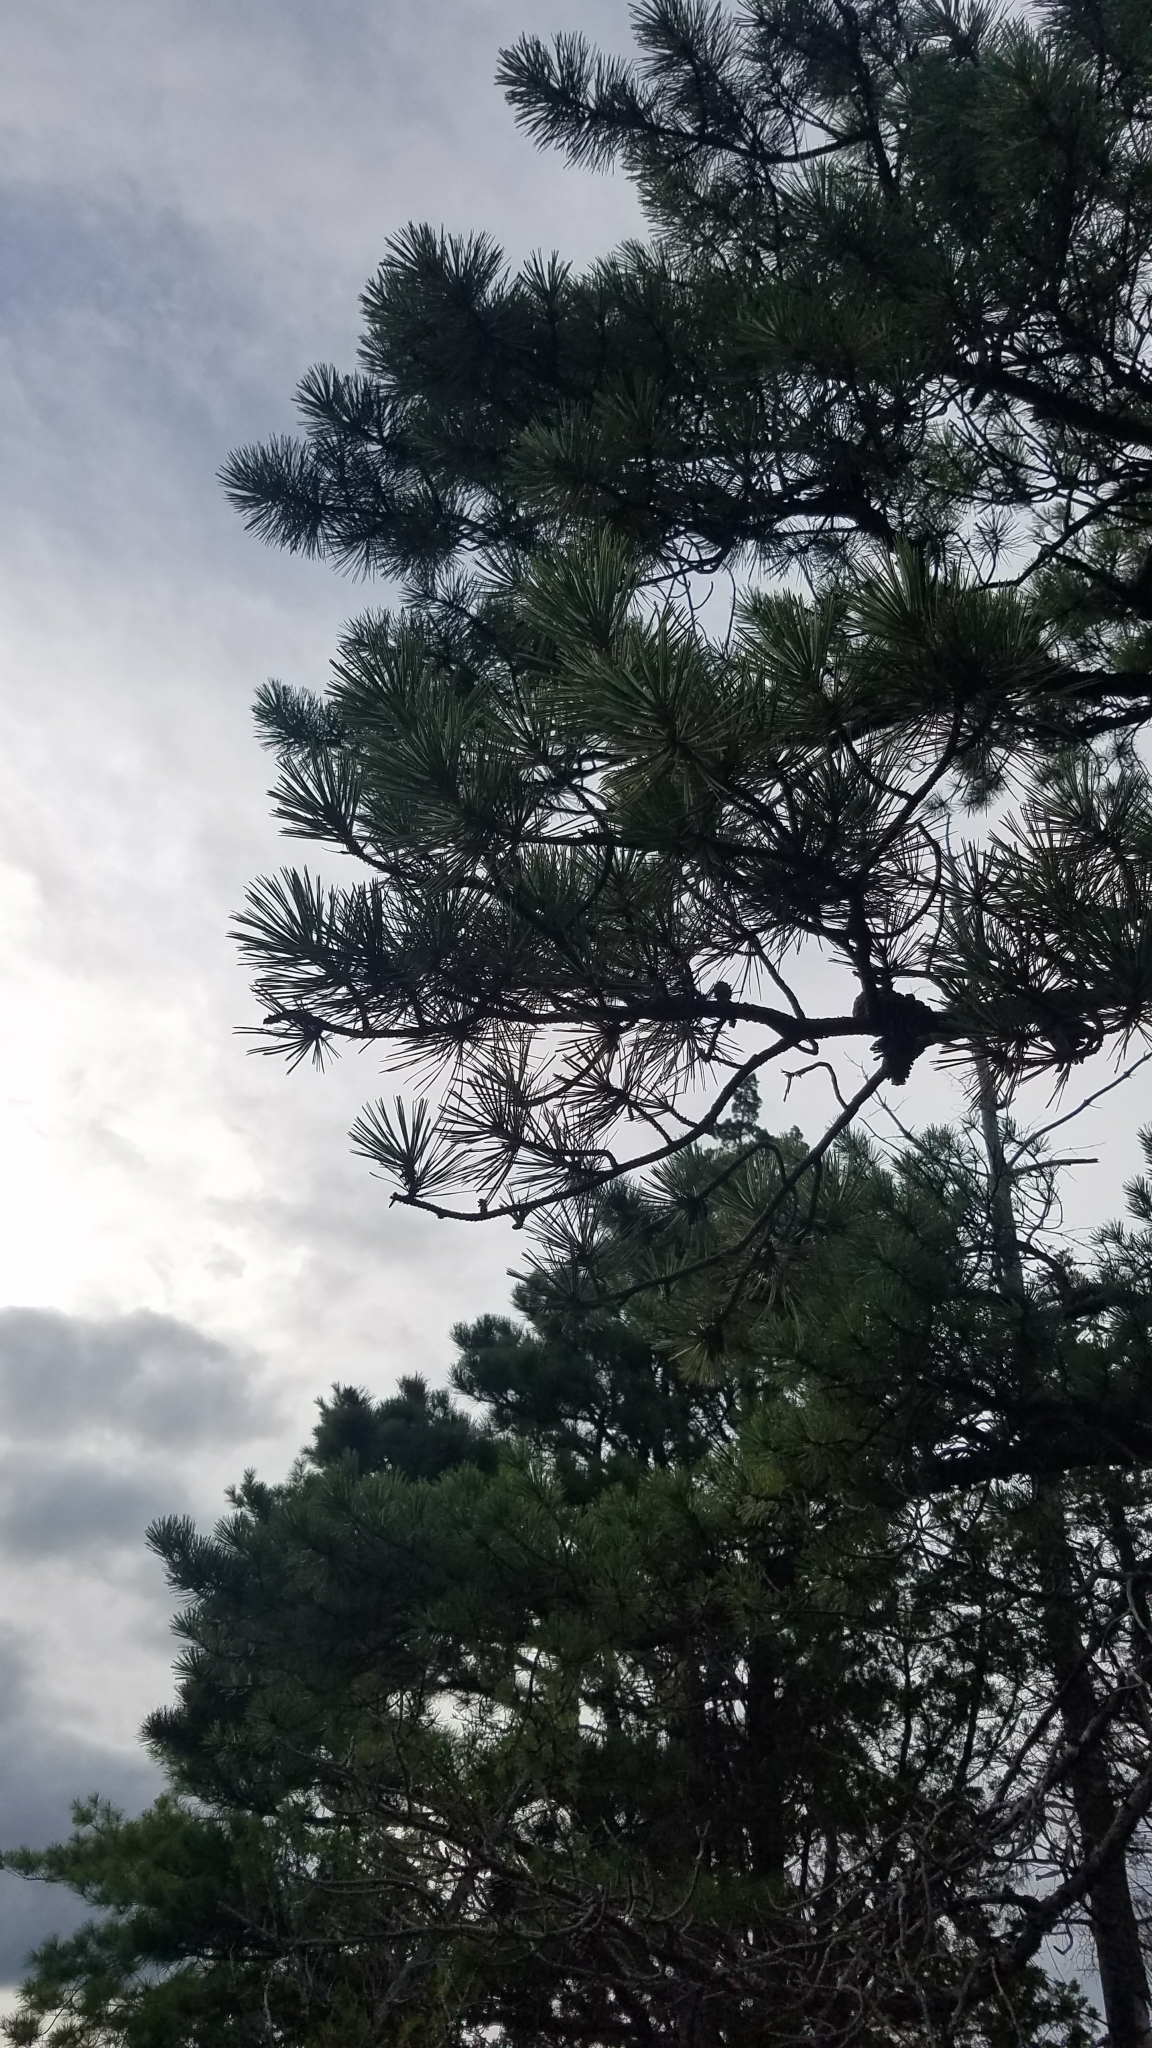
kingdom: Plantae
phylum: Tracheophyta
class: Pinopsida
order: Pinales
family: Pinaceae
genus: Pinus
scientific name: Pinus rigida
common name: Pitch pine
